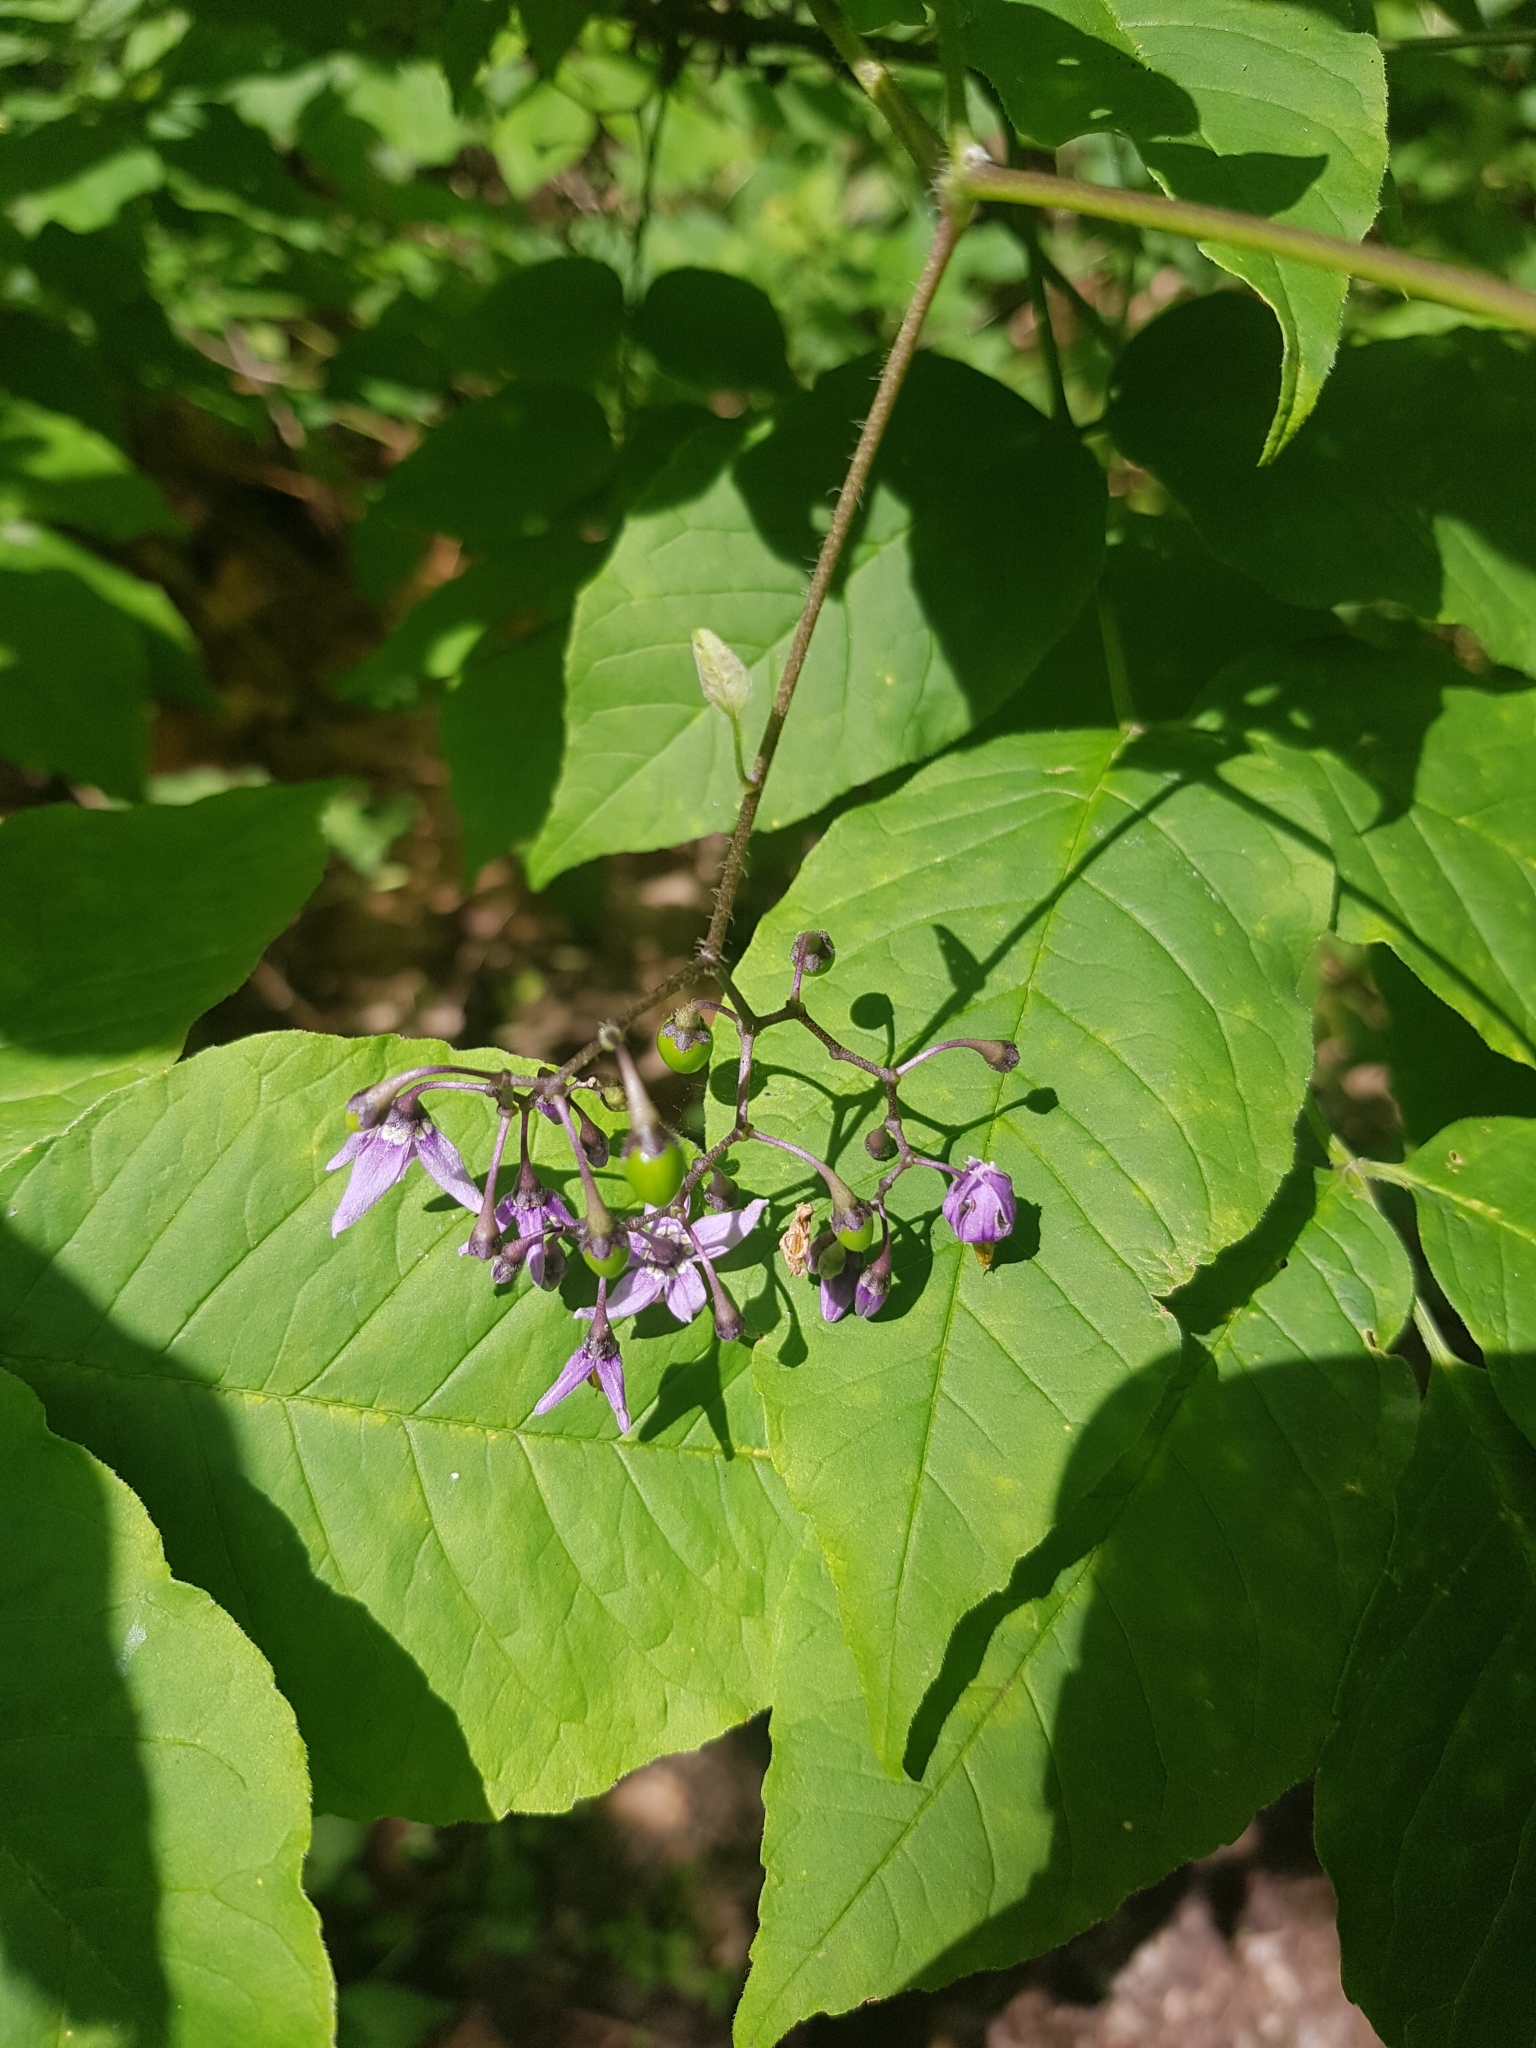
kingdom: Plantae
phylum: Tracheophyta
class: Magnoliopsida
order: Solanales
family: Solanaceae
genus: Solanum
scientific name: Solanum dulcamara
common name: Climbing nightshade
